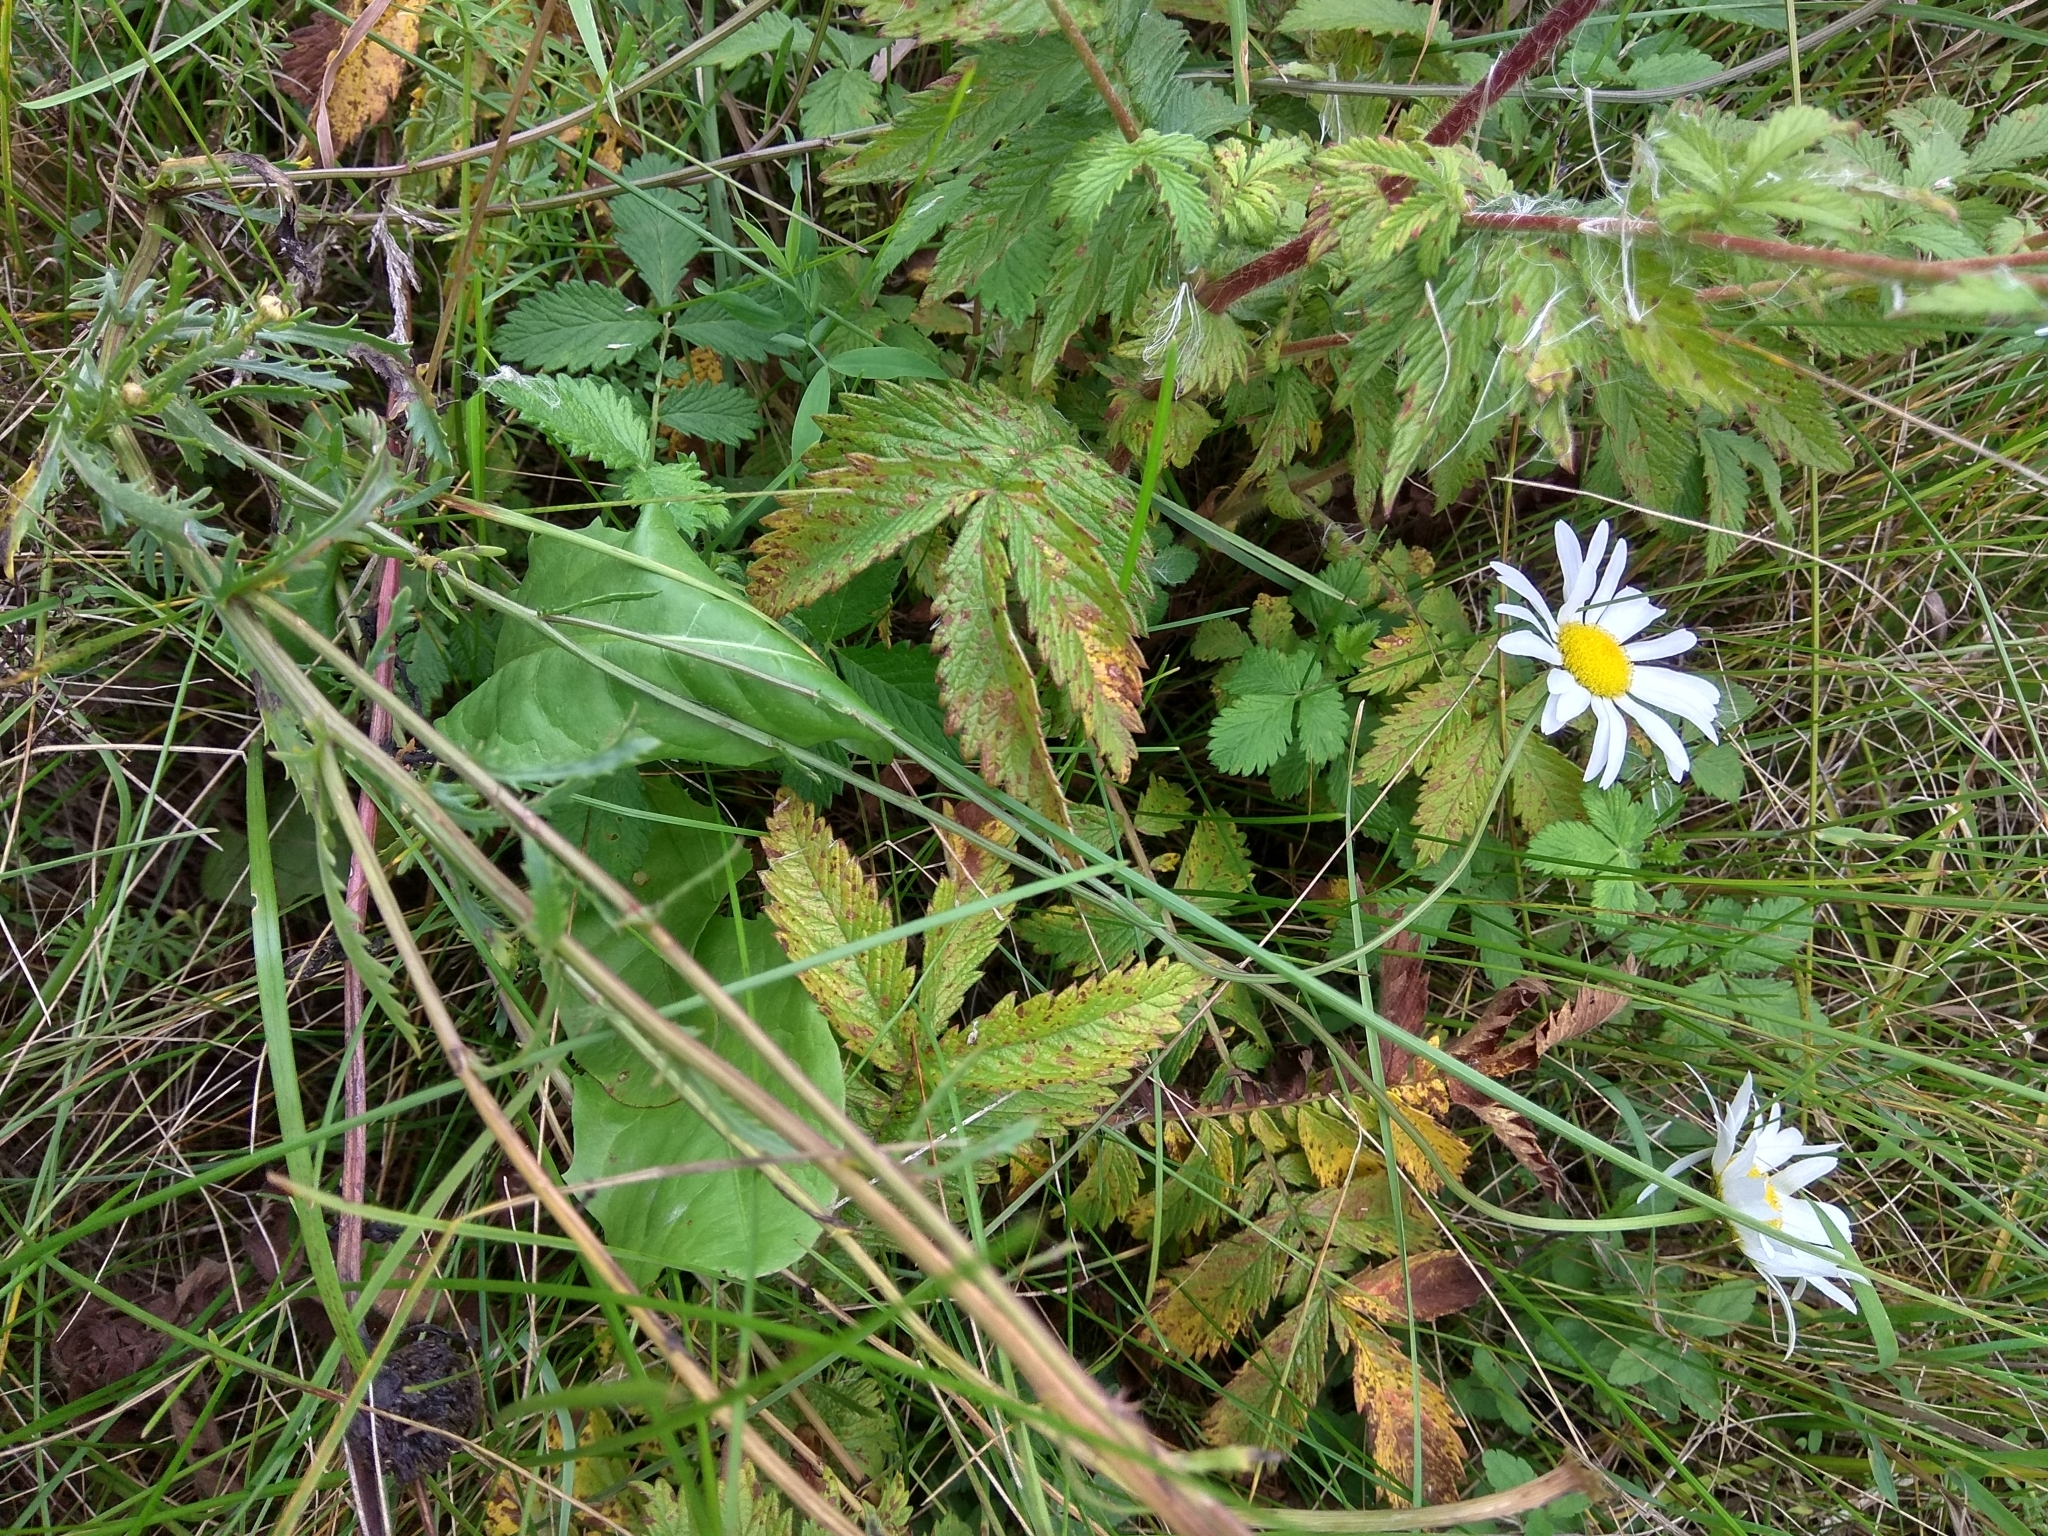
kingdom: Plantae
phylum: Tracheophyta
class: Magnoliopsida
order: Asterales
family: Asteraceae
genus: Leucanthemum
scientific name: Leucanthemum vulgare
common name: Oxeye daisy
